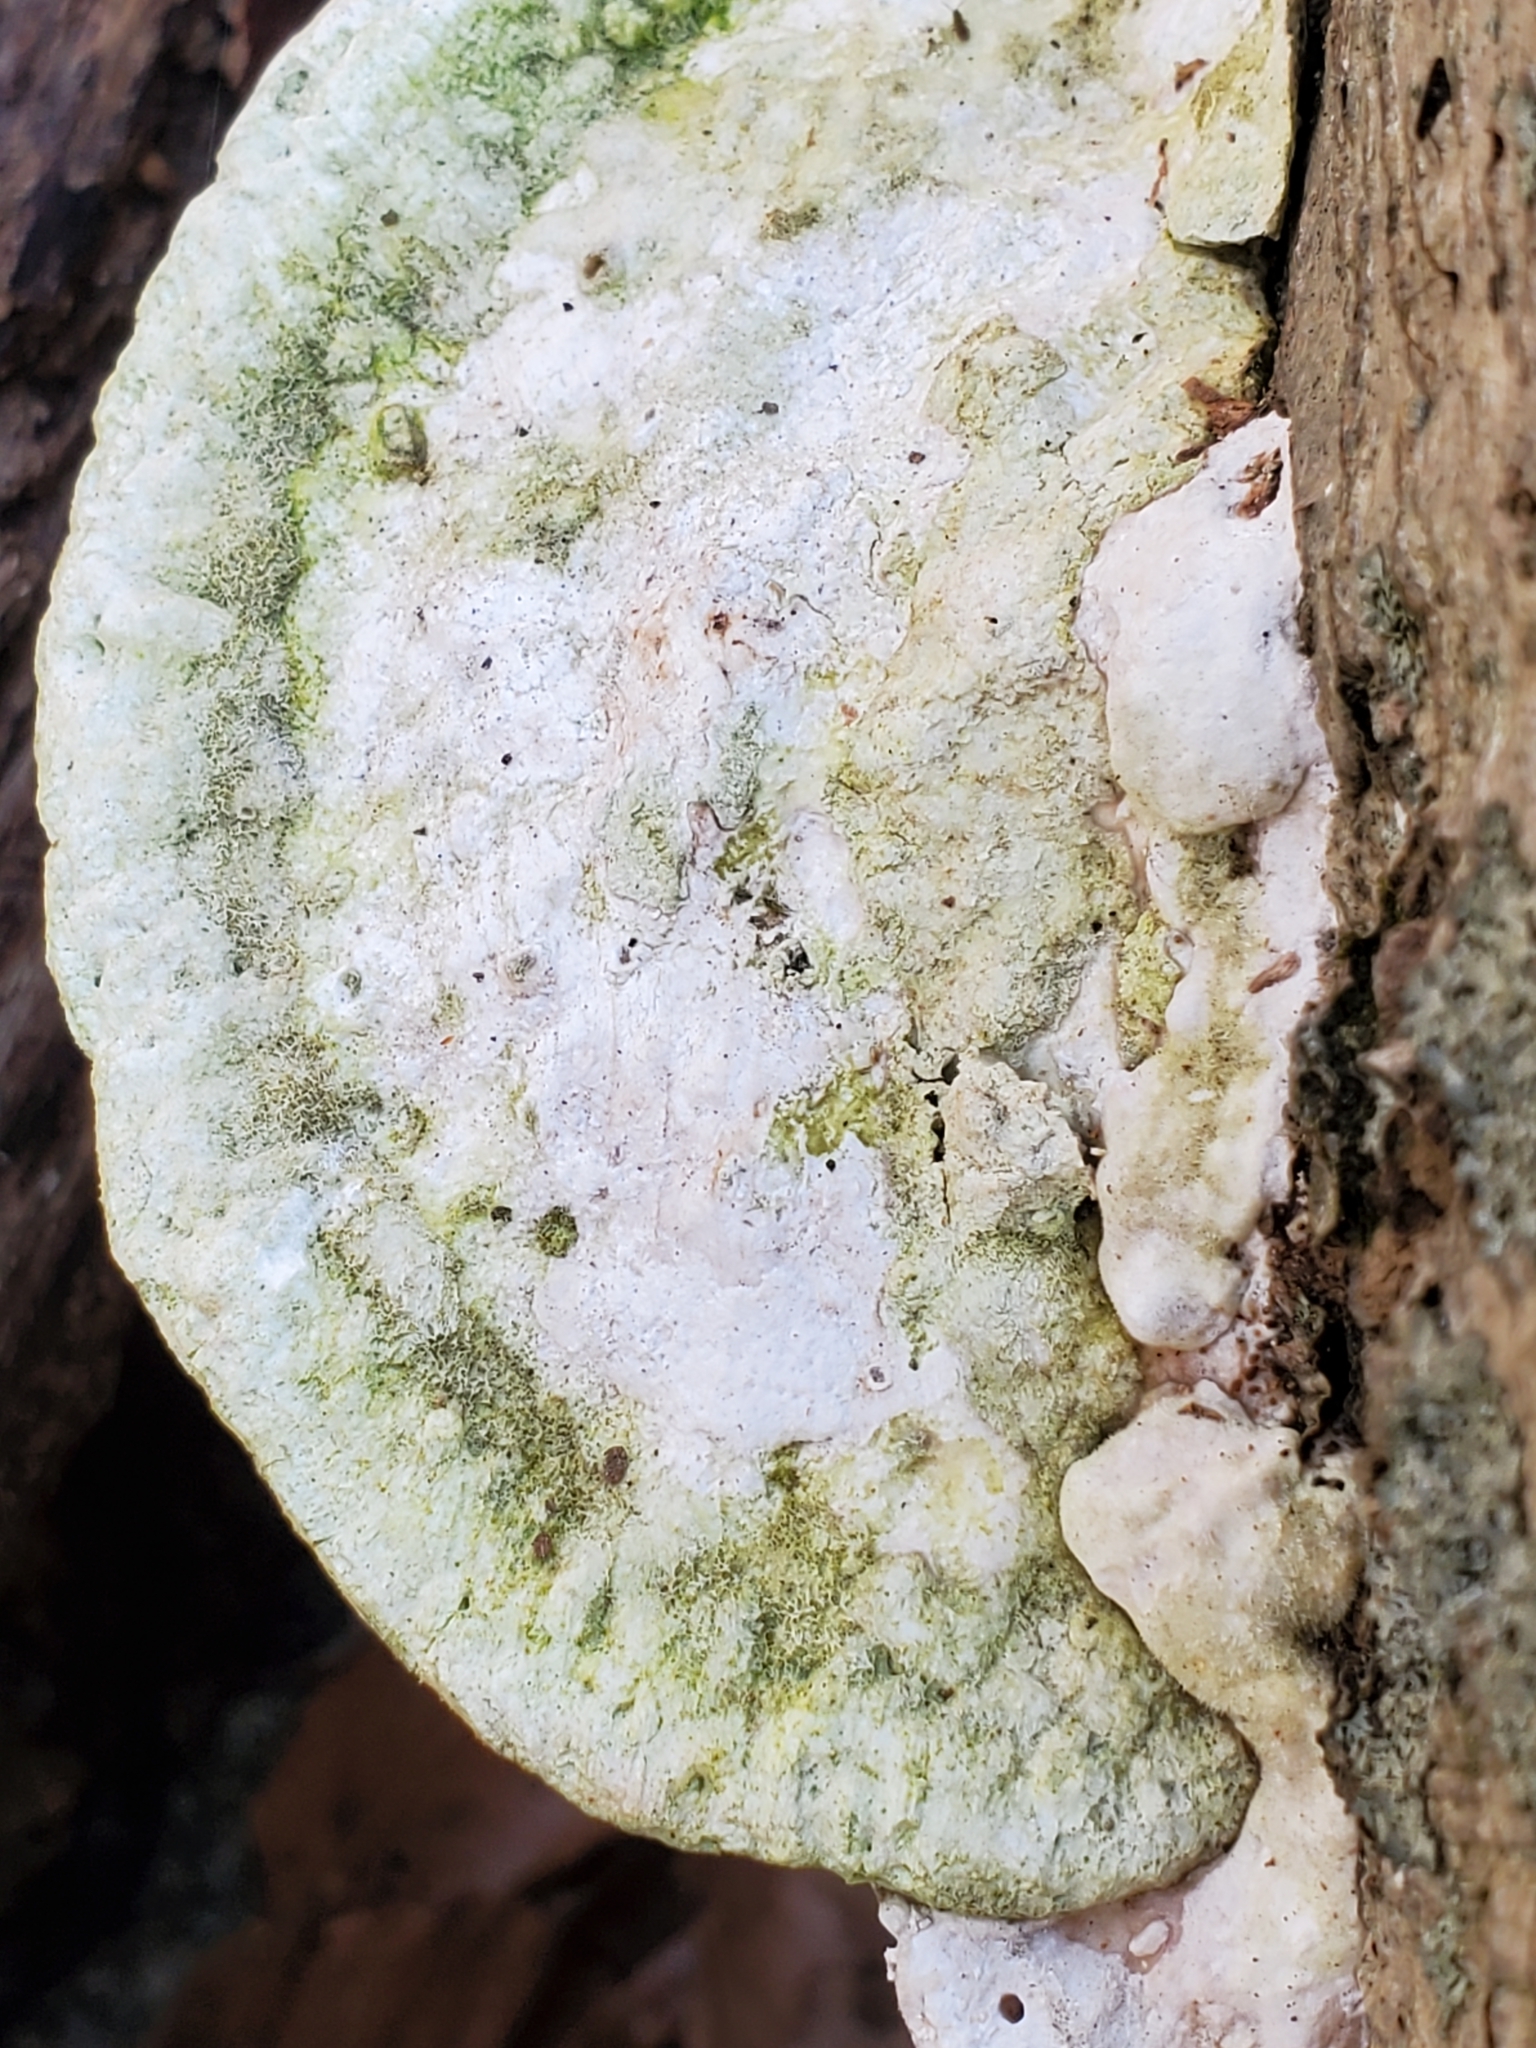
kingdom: Fungi
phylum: Basidiomycota
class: Agaricomycetes
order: Polyporales
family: Polyporaceae
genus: Trametes
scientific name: Trametes gibbosa
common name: Lumpy bracket
